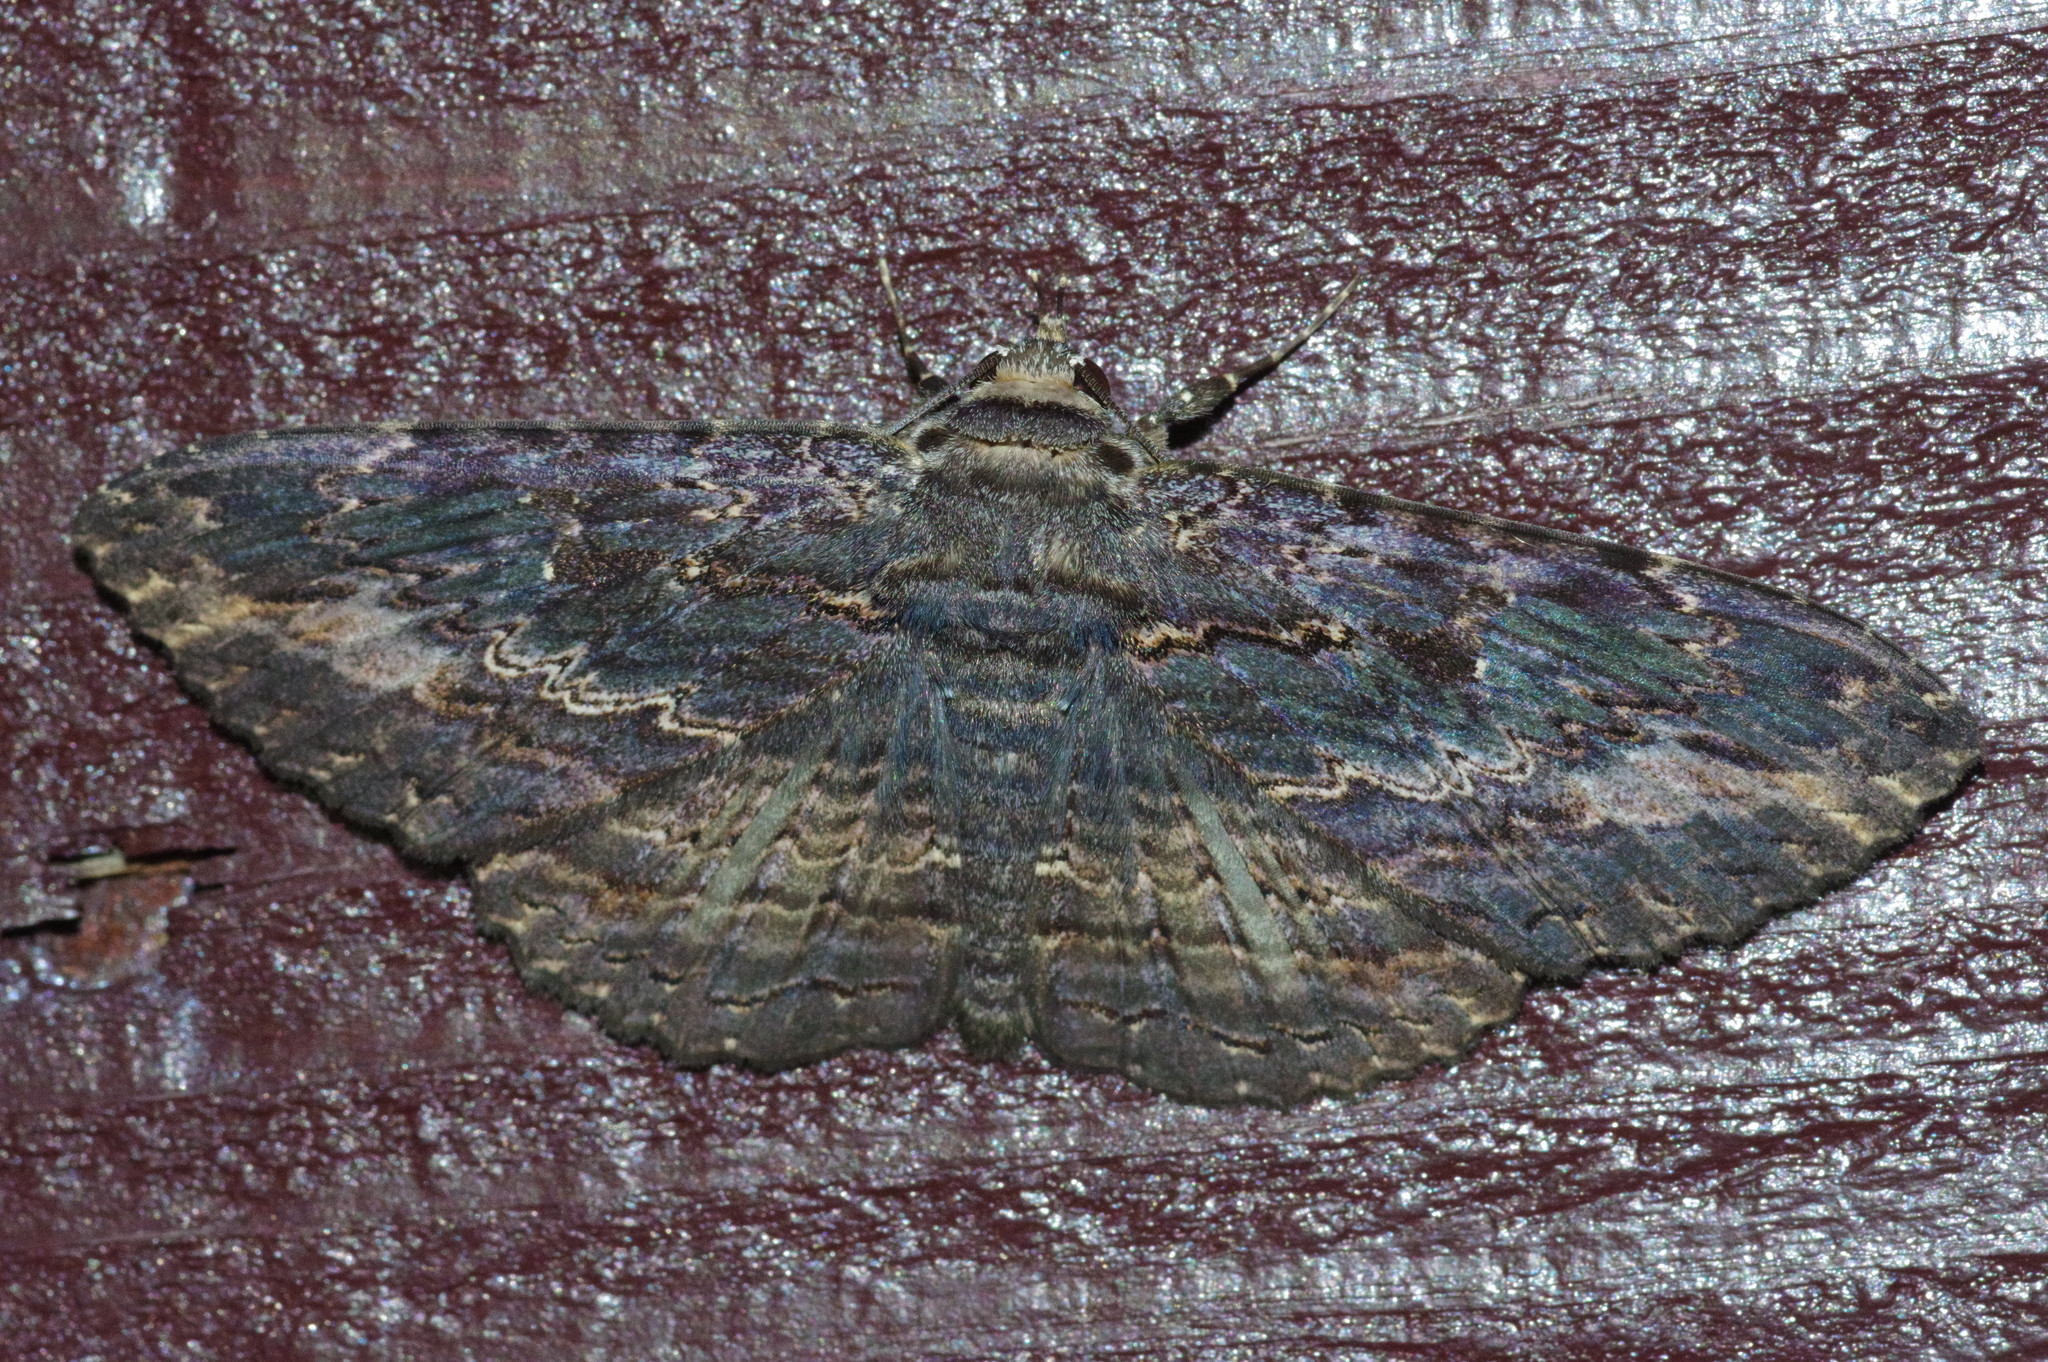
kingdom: Animalia
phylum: Arthropoda
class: Insecta
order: Lepidoptera
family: Erebidae
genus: Anisoneura
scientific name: Anisoneura salebrosa
